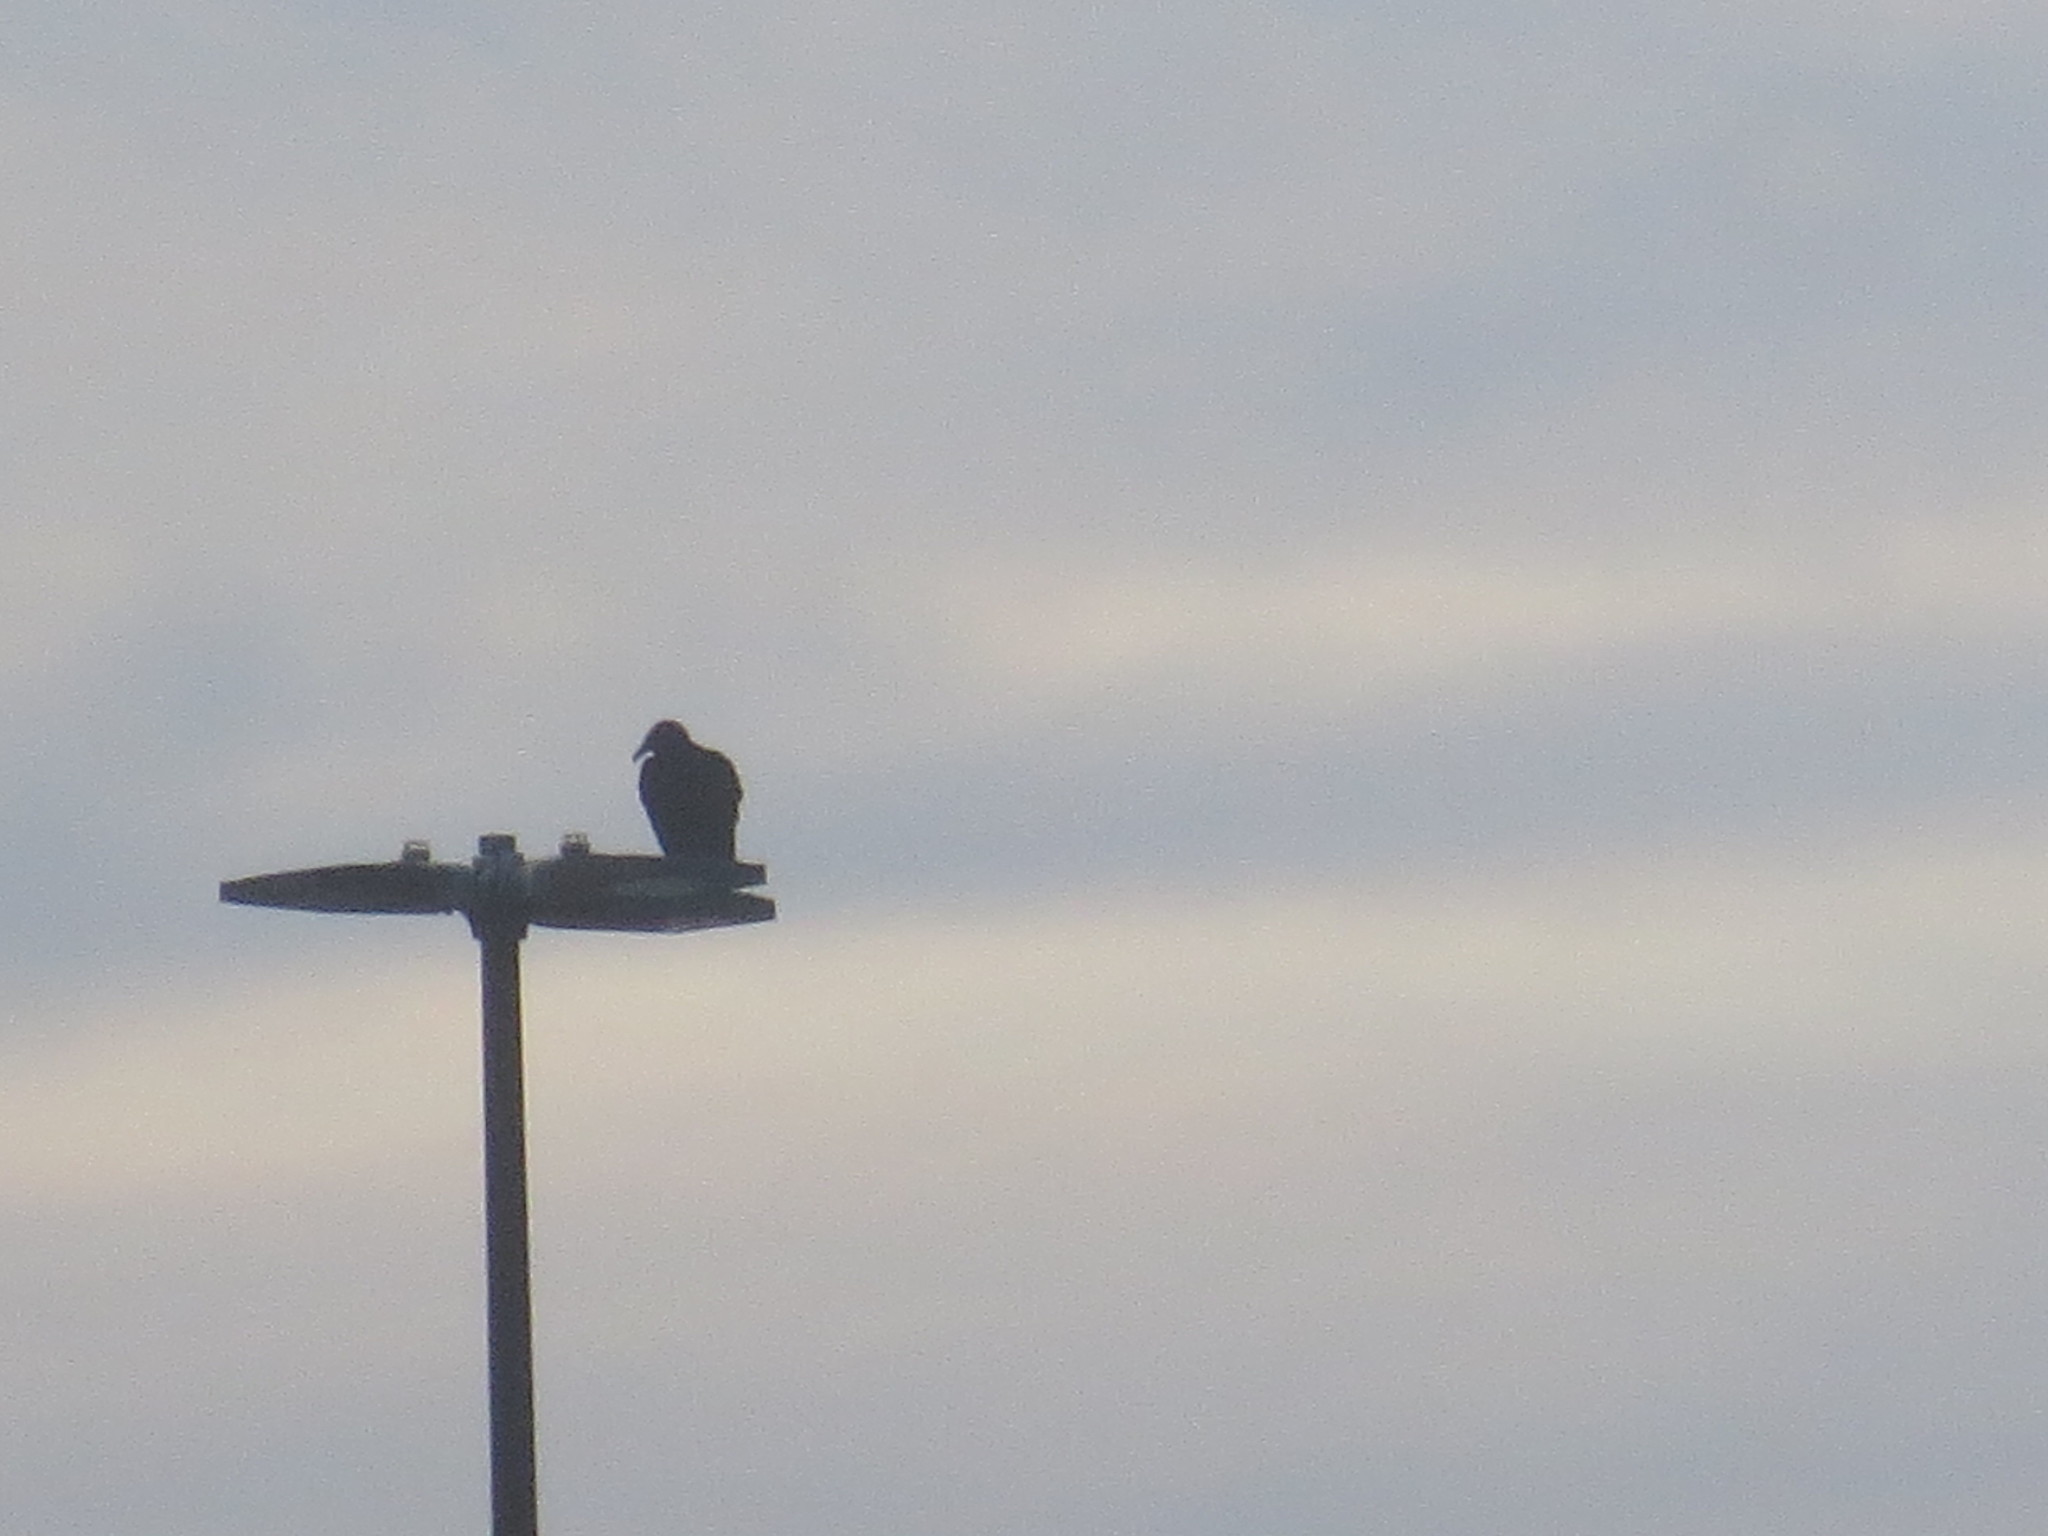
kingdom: Animalia
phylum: Chordata
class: Aves
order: Accipitriformes
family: Cathartidae
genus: Coragyps
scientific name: Coragyps atratus
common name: Black vulture
